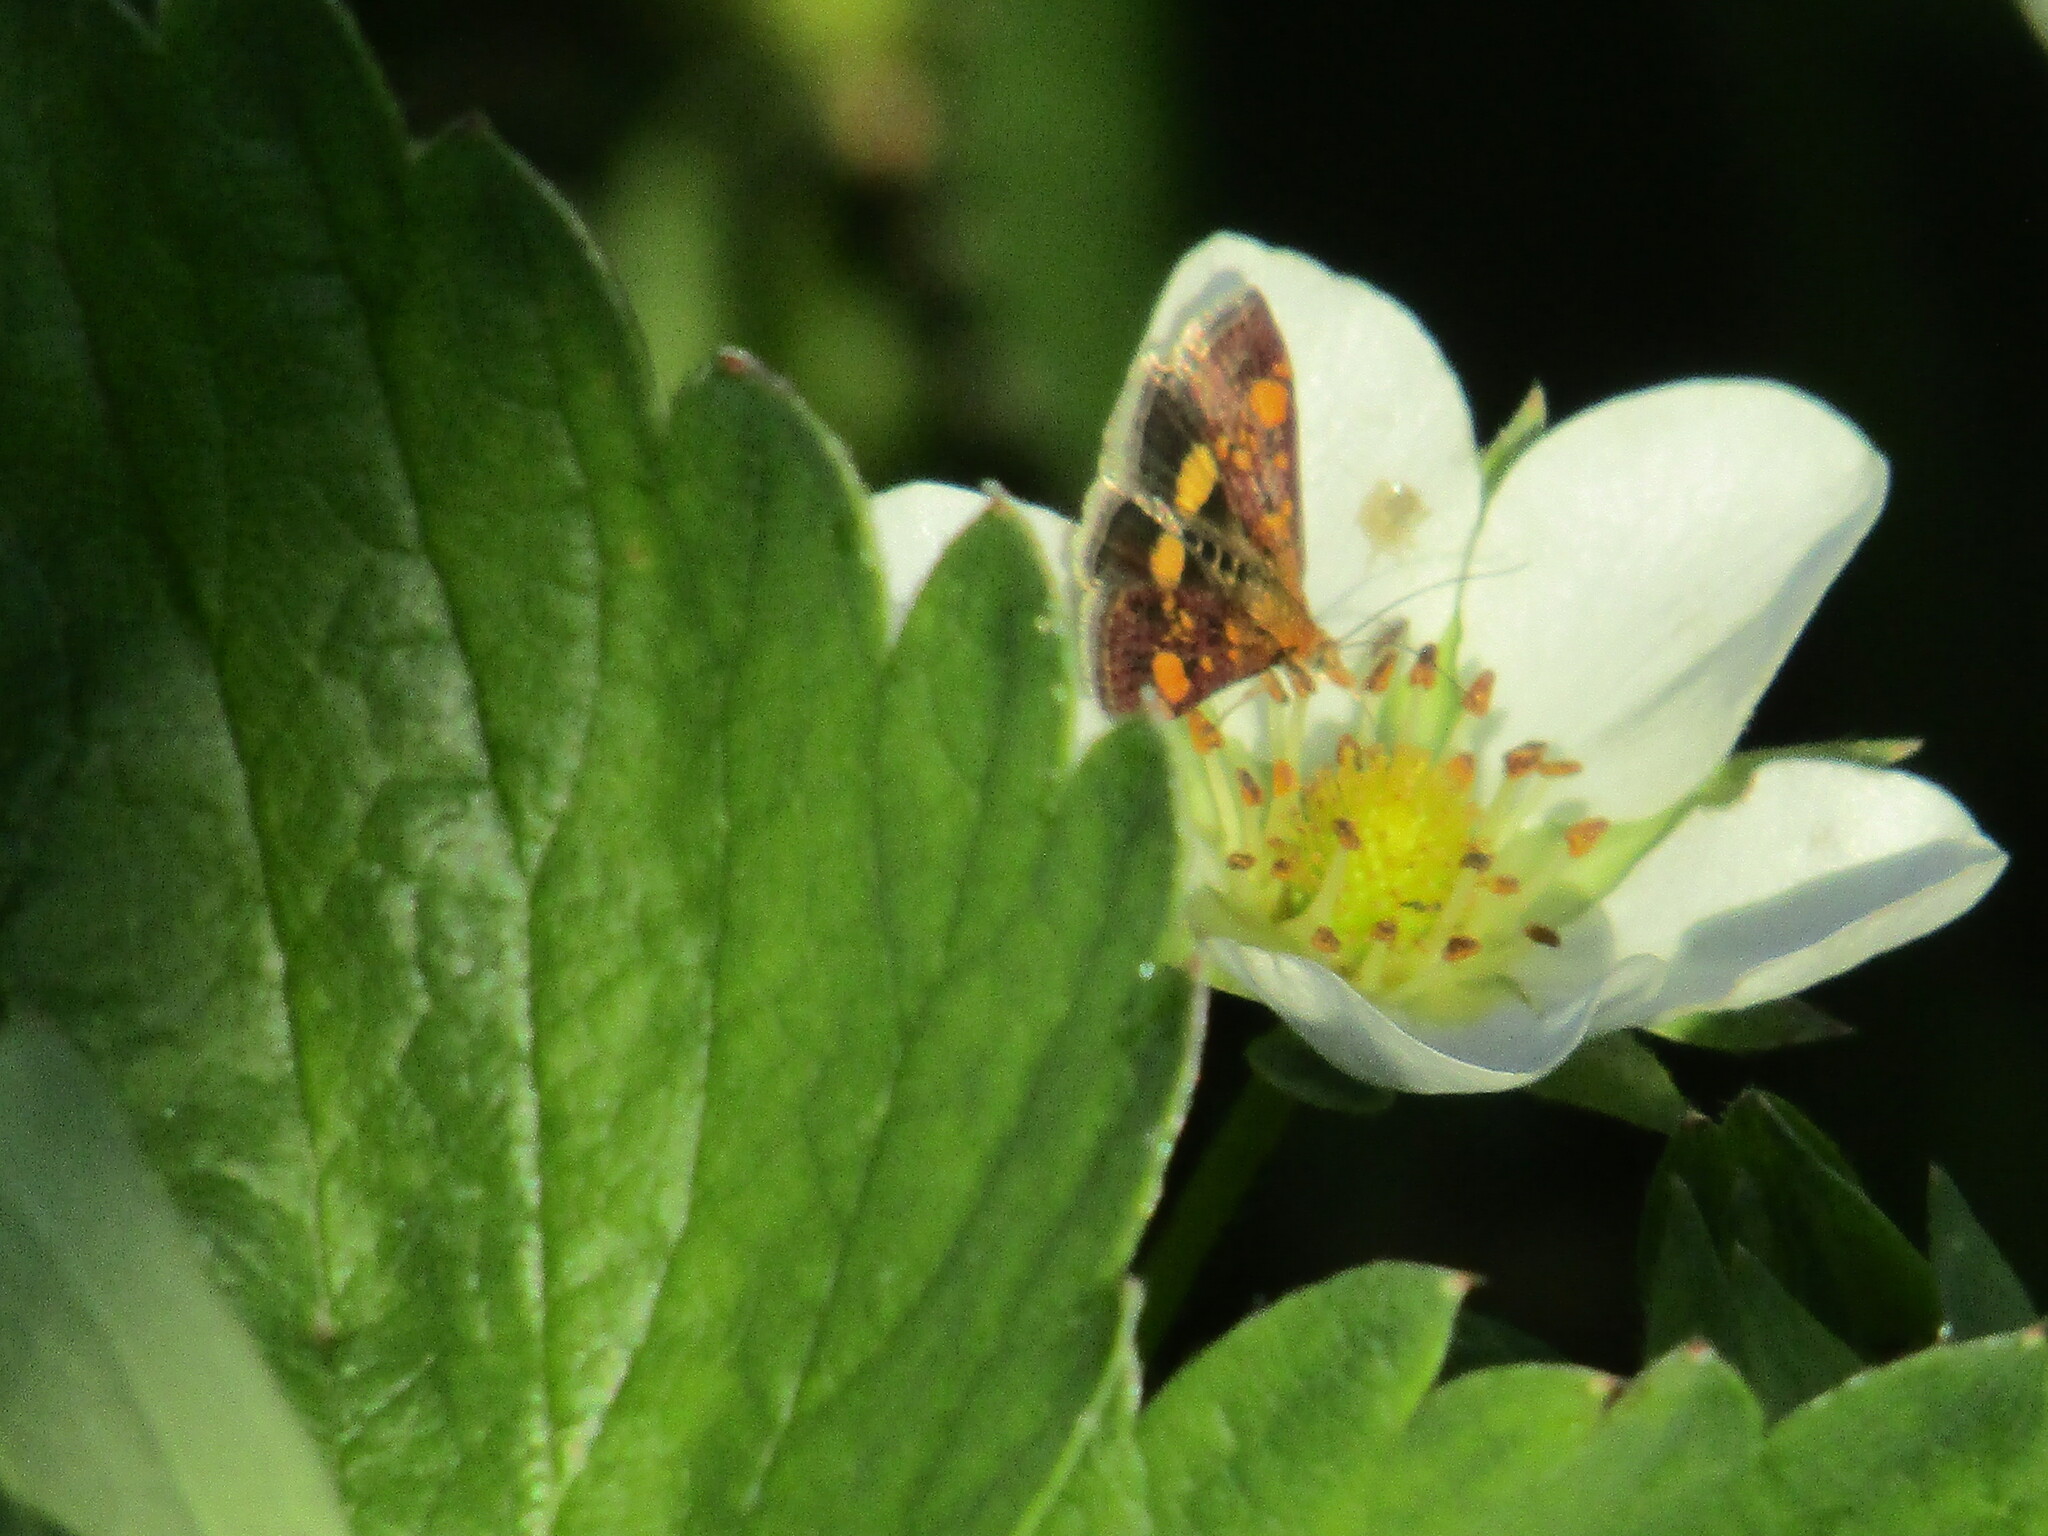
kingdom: Animalia
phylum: Arthropoda
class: Insecta
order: Lepidoptera
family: Crambidae
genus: Pyrausta
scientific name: Pyrausta aurata
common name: Small purple & gold
